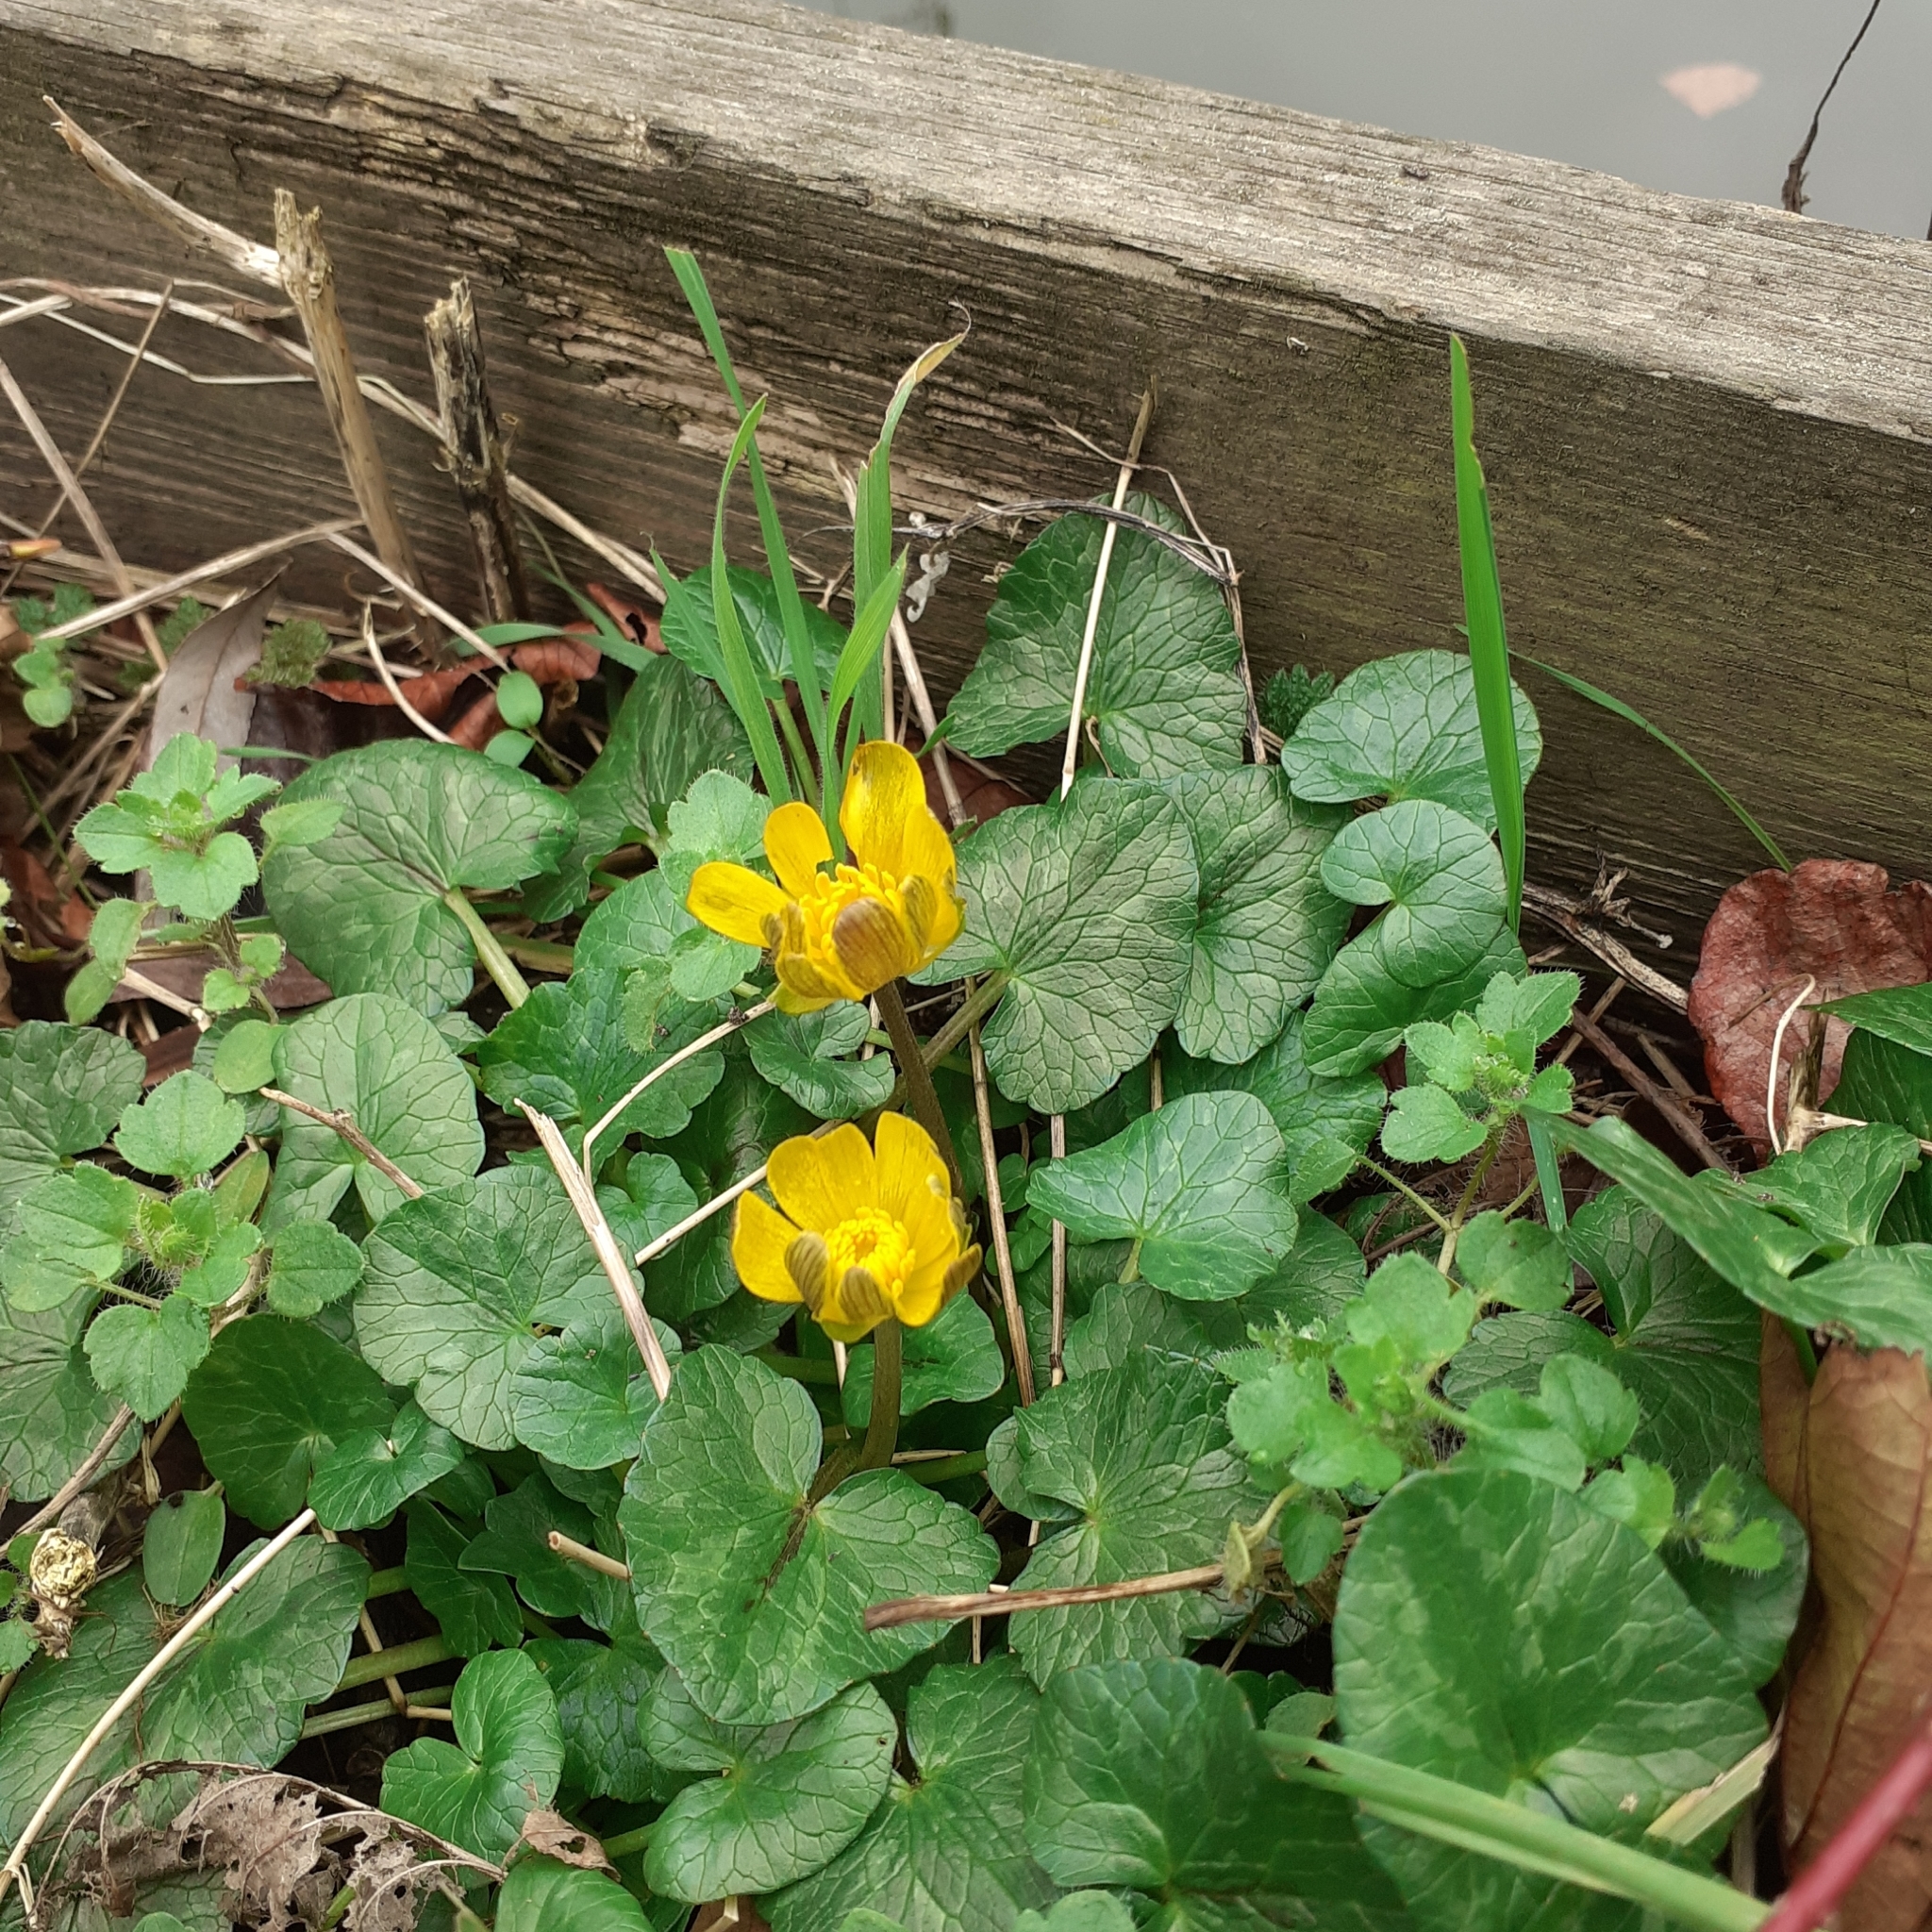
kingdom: Plantae
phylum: Tracheophyta
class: Magnoliopsida
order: Ranunculales
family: Ranunculaceae
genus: Ficaria
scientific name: Ficaria verna
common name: Lesser celandine
